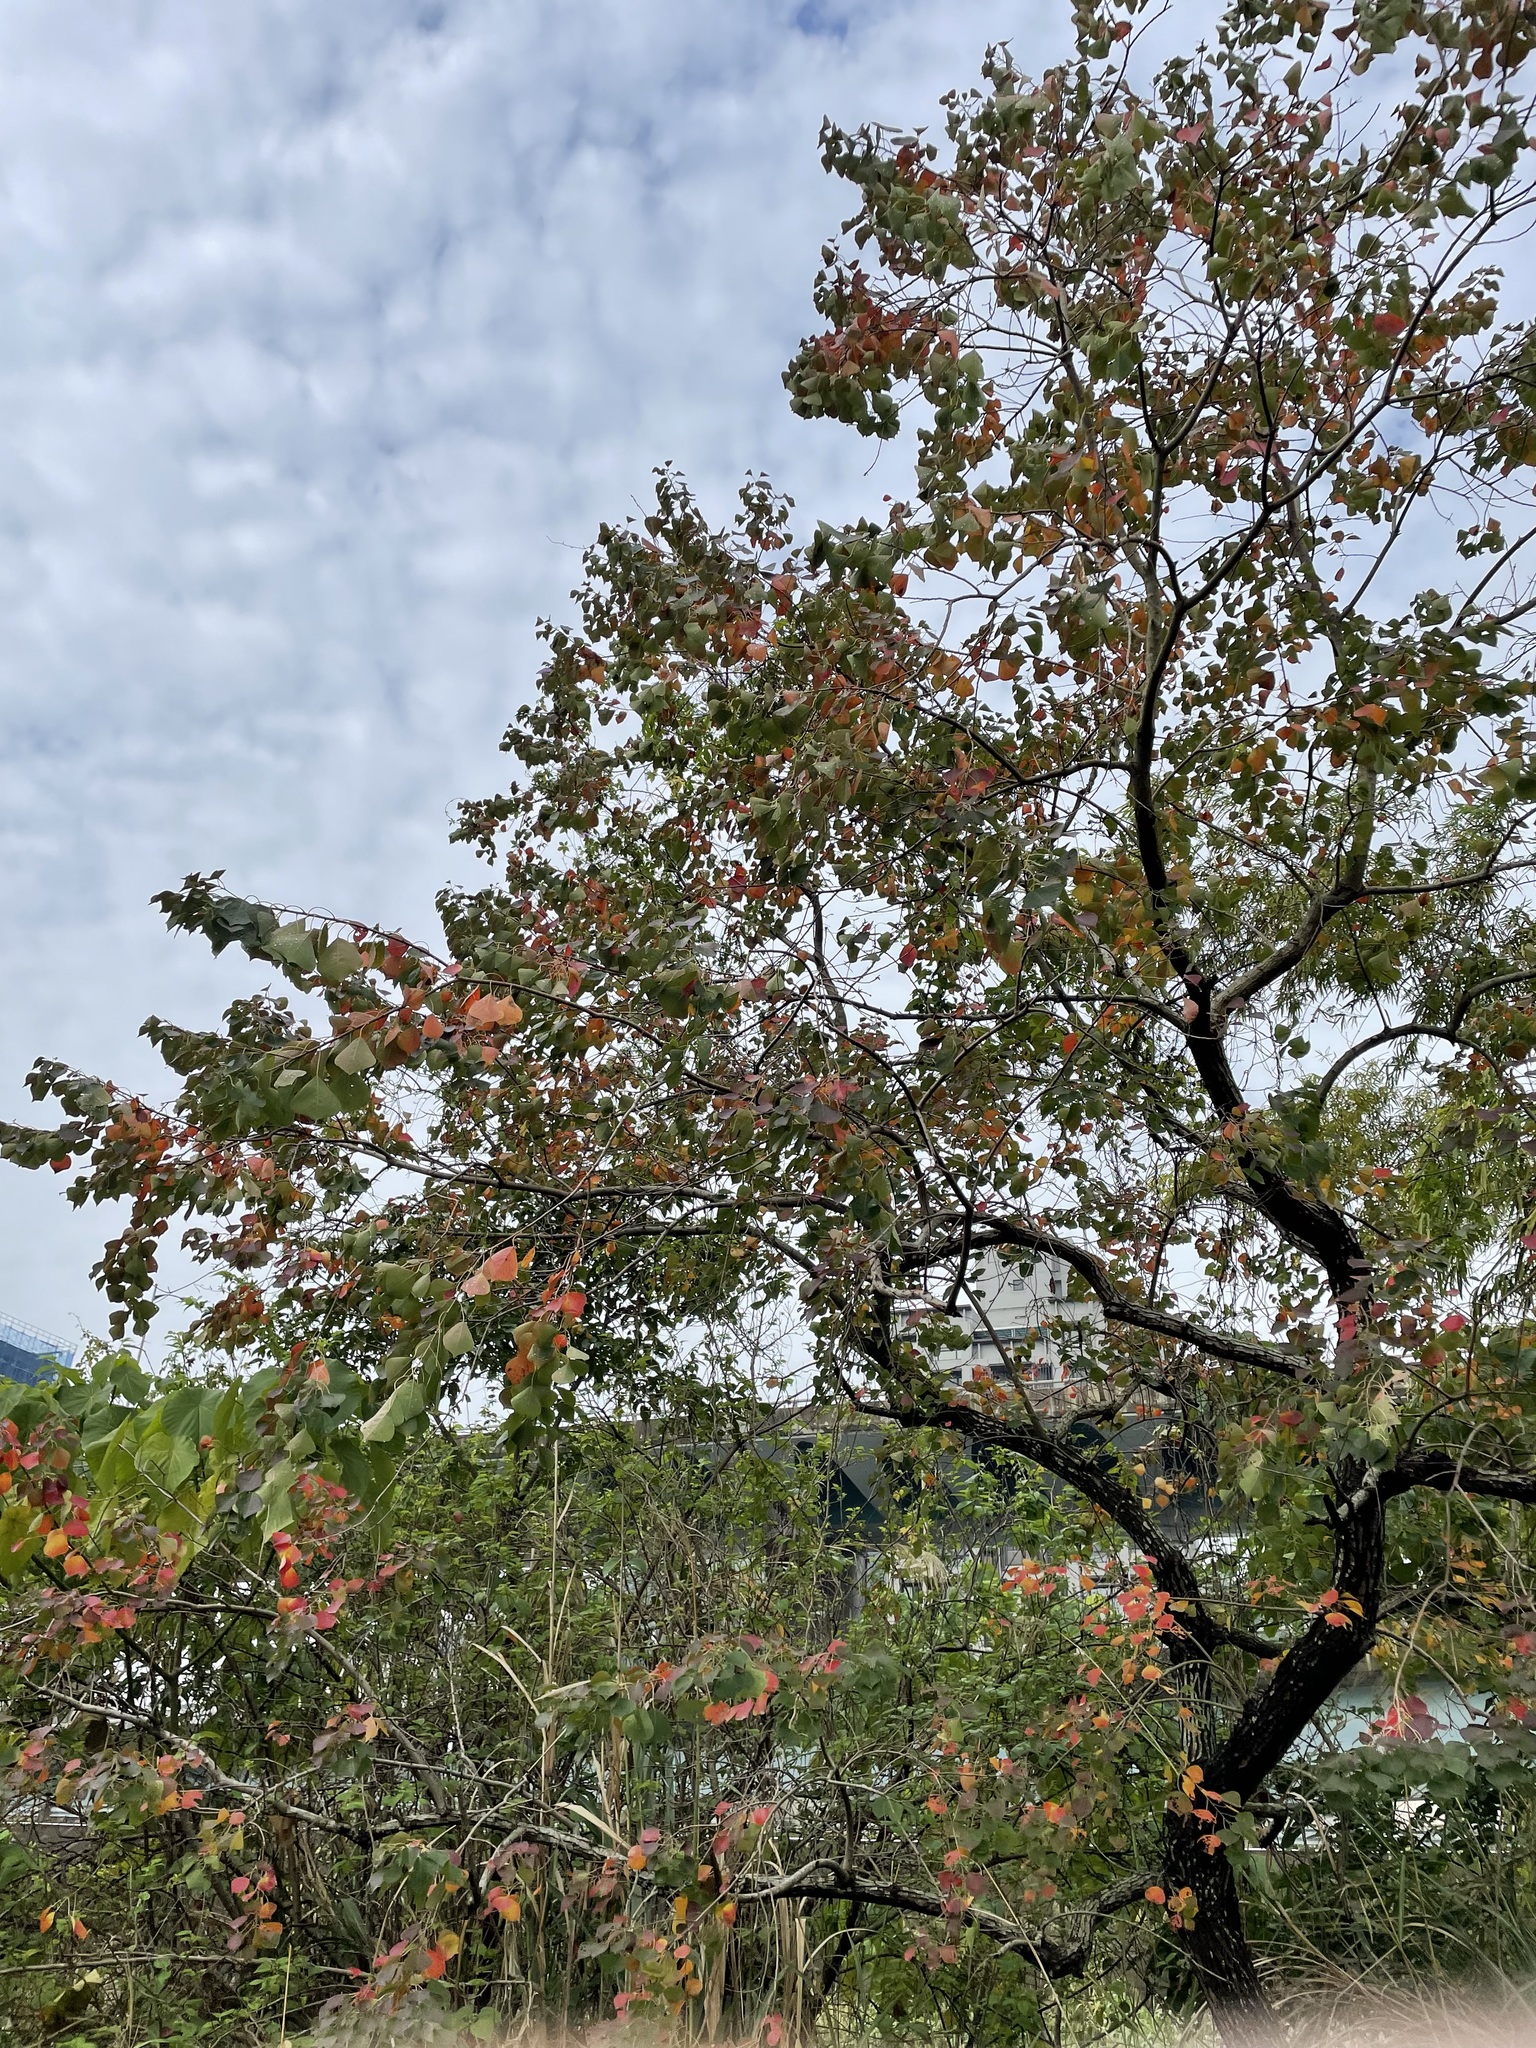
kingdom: Plantae
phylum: Tracheophyta
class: Magnoliopsida
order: Malpighiales
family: Euphorbiaceae
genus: Triadica
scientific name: Triadica sebifera
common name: Chinese tallow
